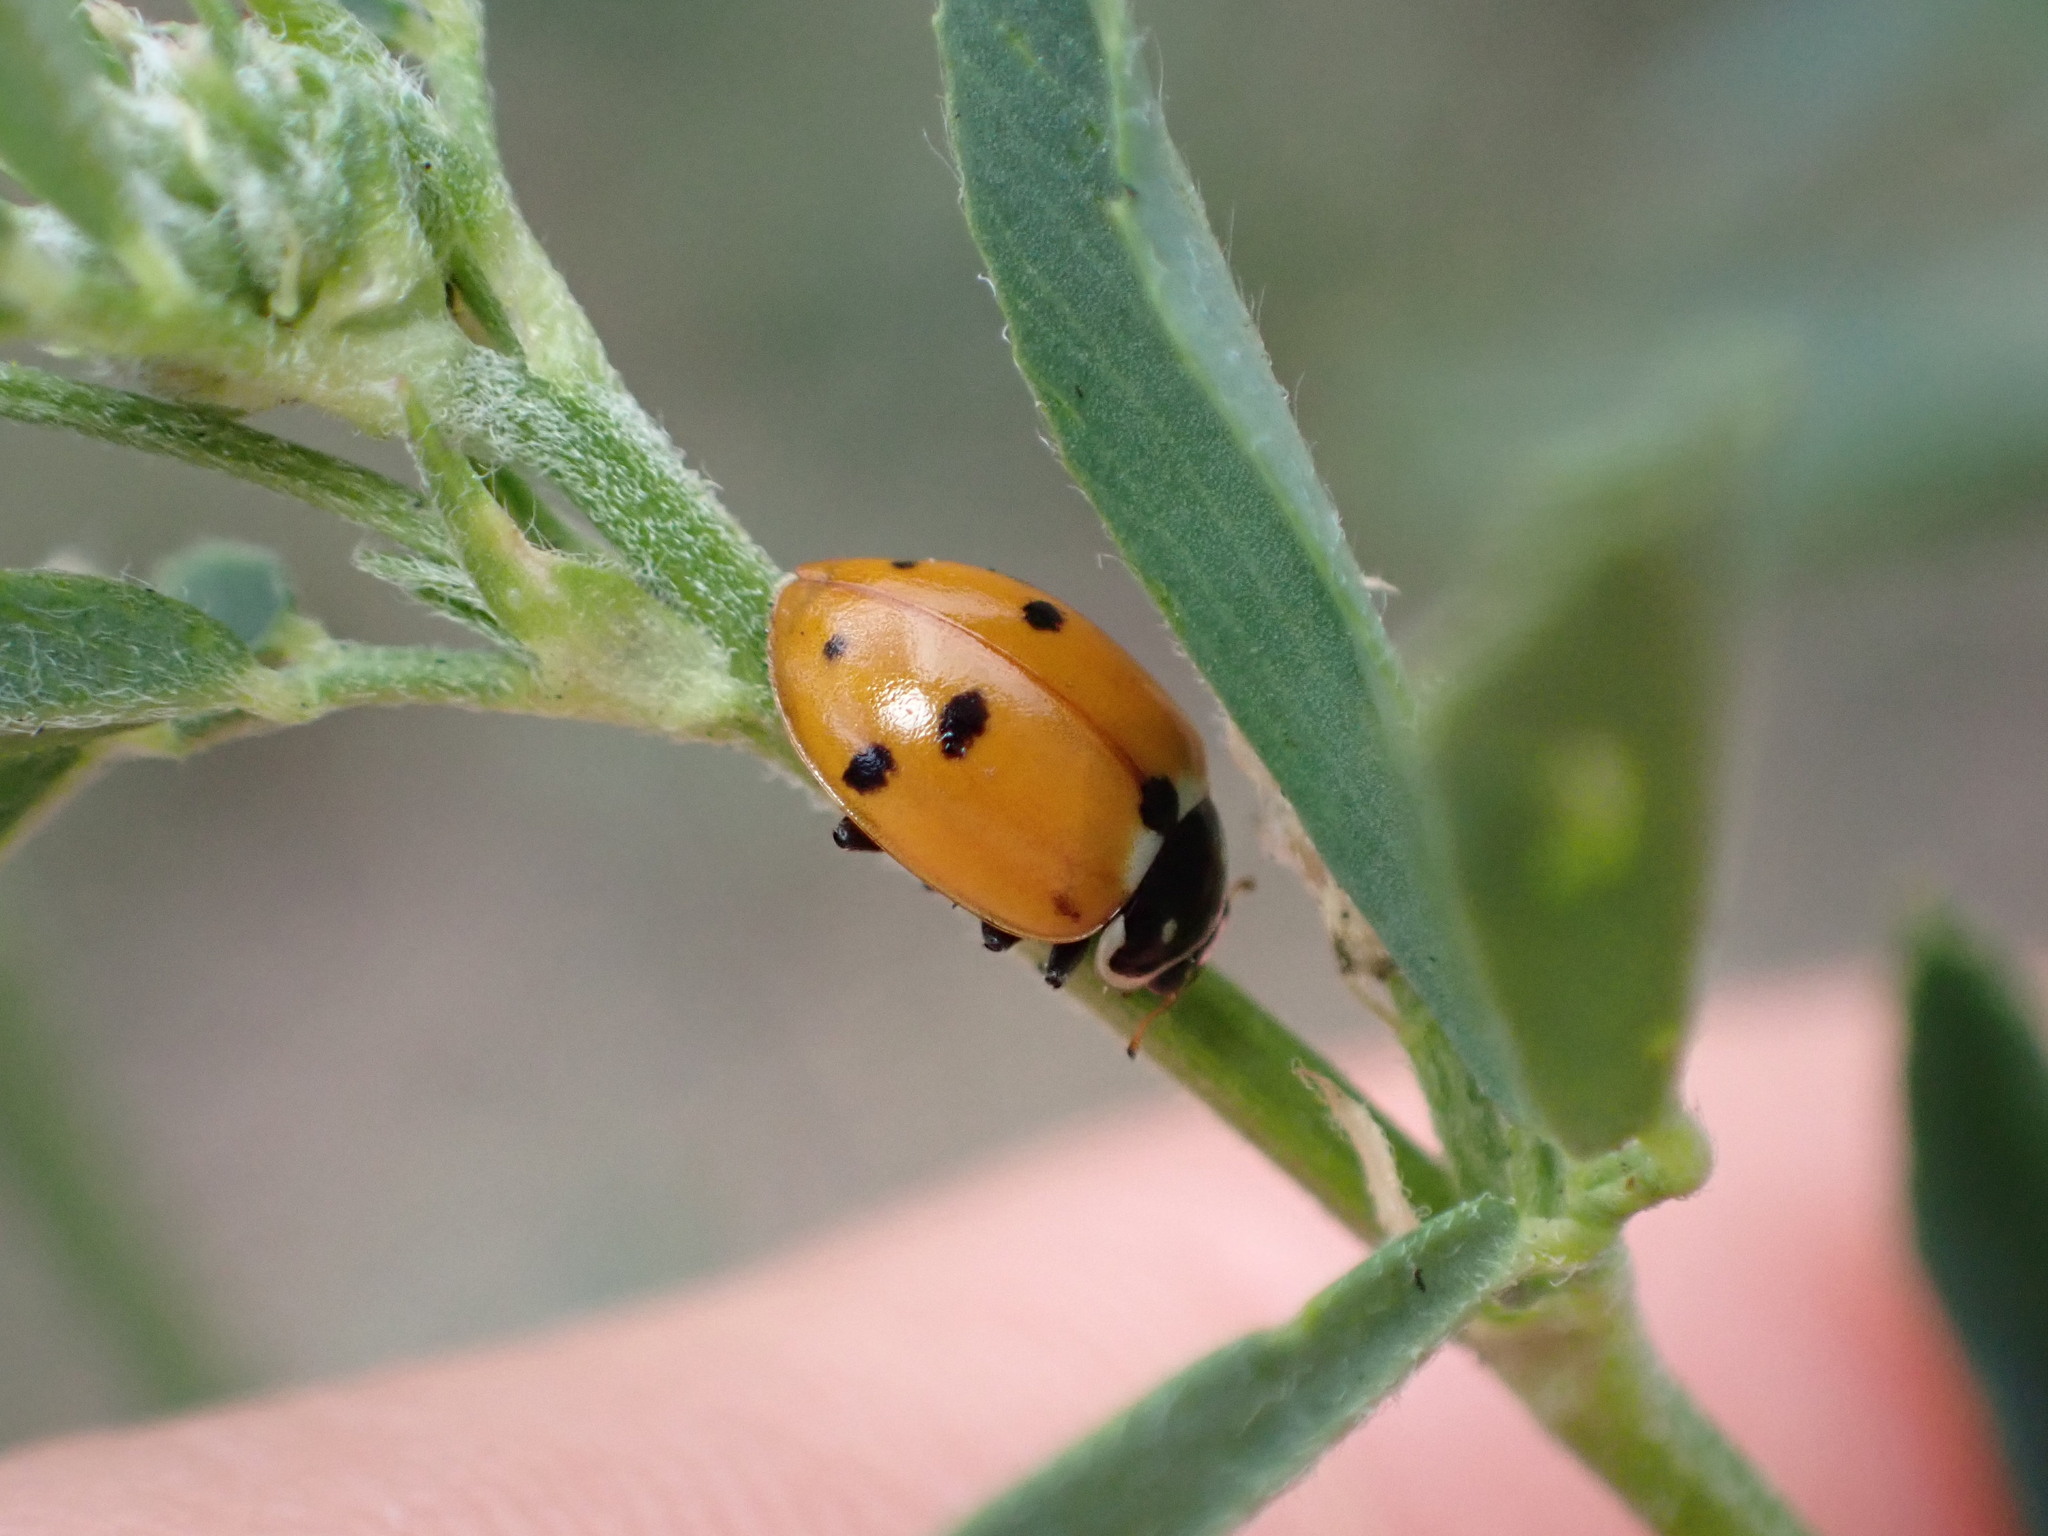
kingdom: Animalia
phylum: Arthropoda
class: Insecta
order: Coleoptera
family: Coccinellidae
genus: Hippodamia
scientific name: Hippodamia variegata
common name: Ladybird beetle
